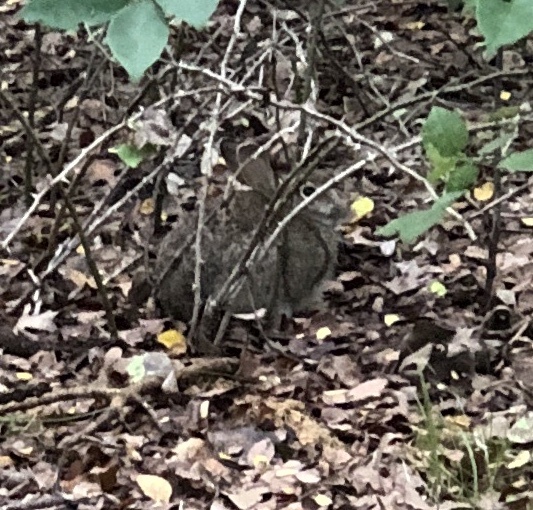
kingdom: Animalia
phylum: Chordata
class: Mammalia
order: Lagomorpha
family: Leporidae
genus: Sylvilagus
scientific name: Sylvilagus floridanus
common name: Eastern cottontail
